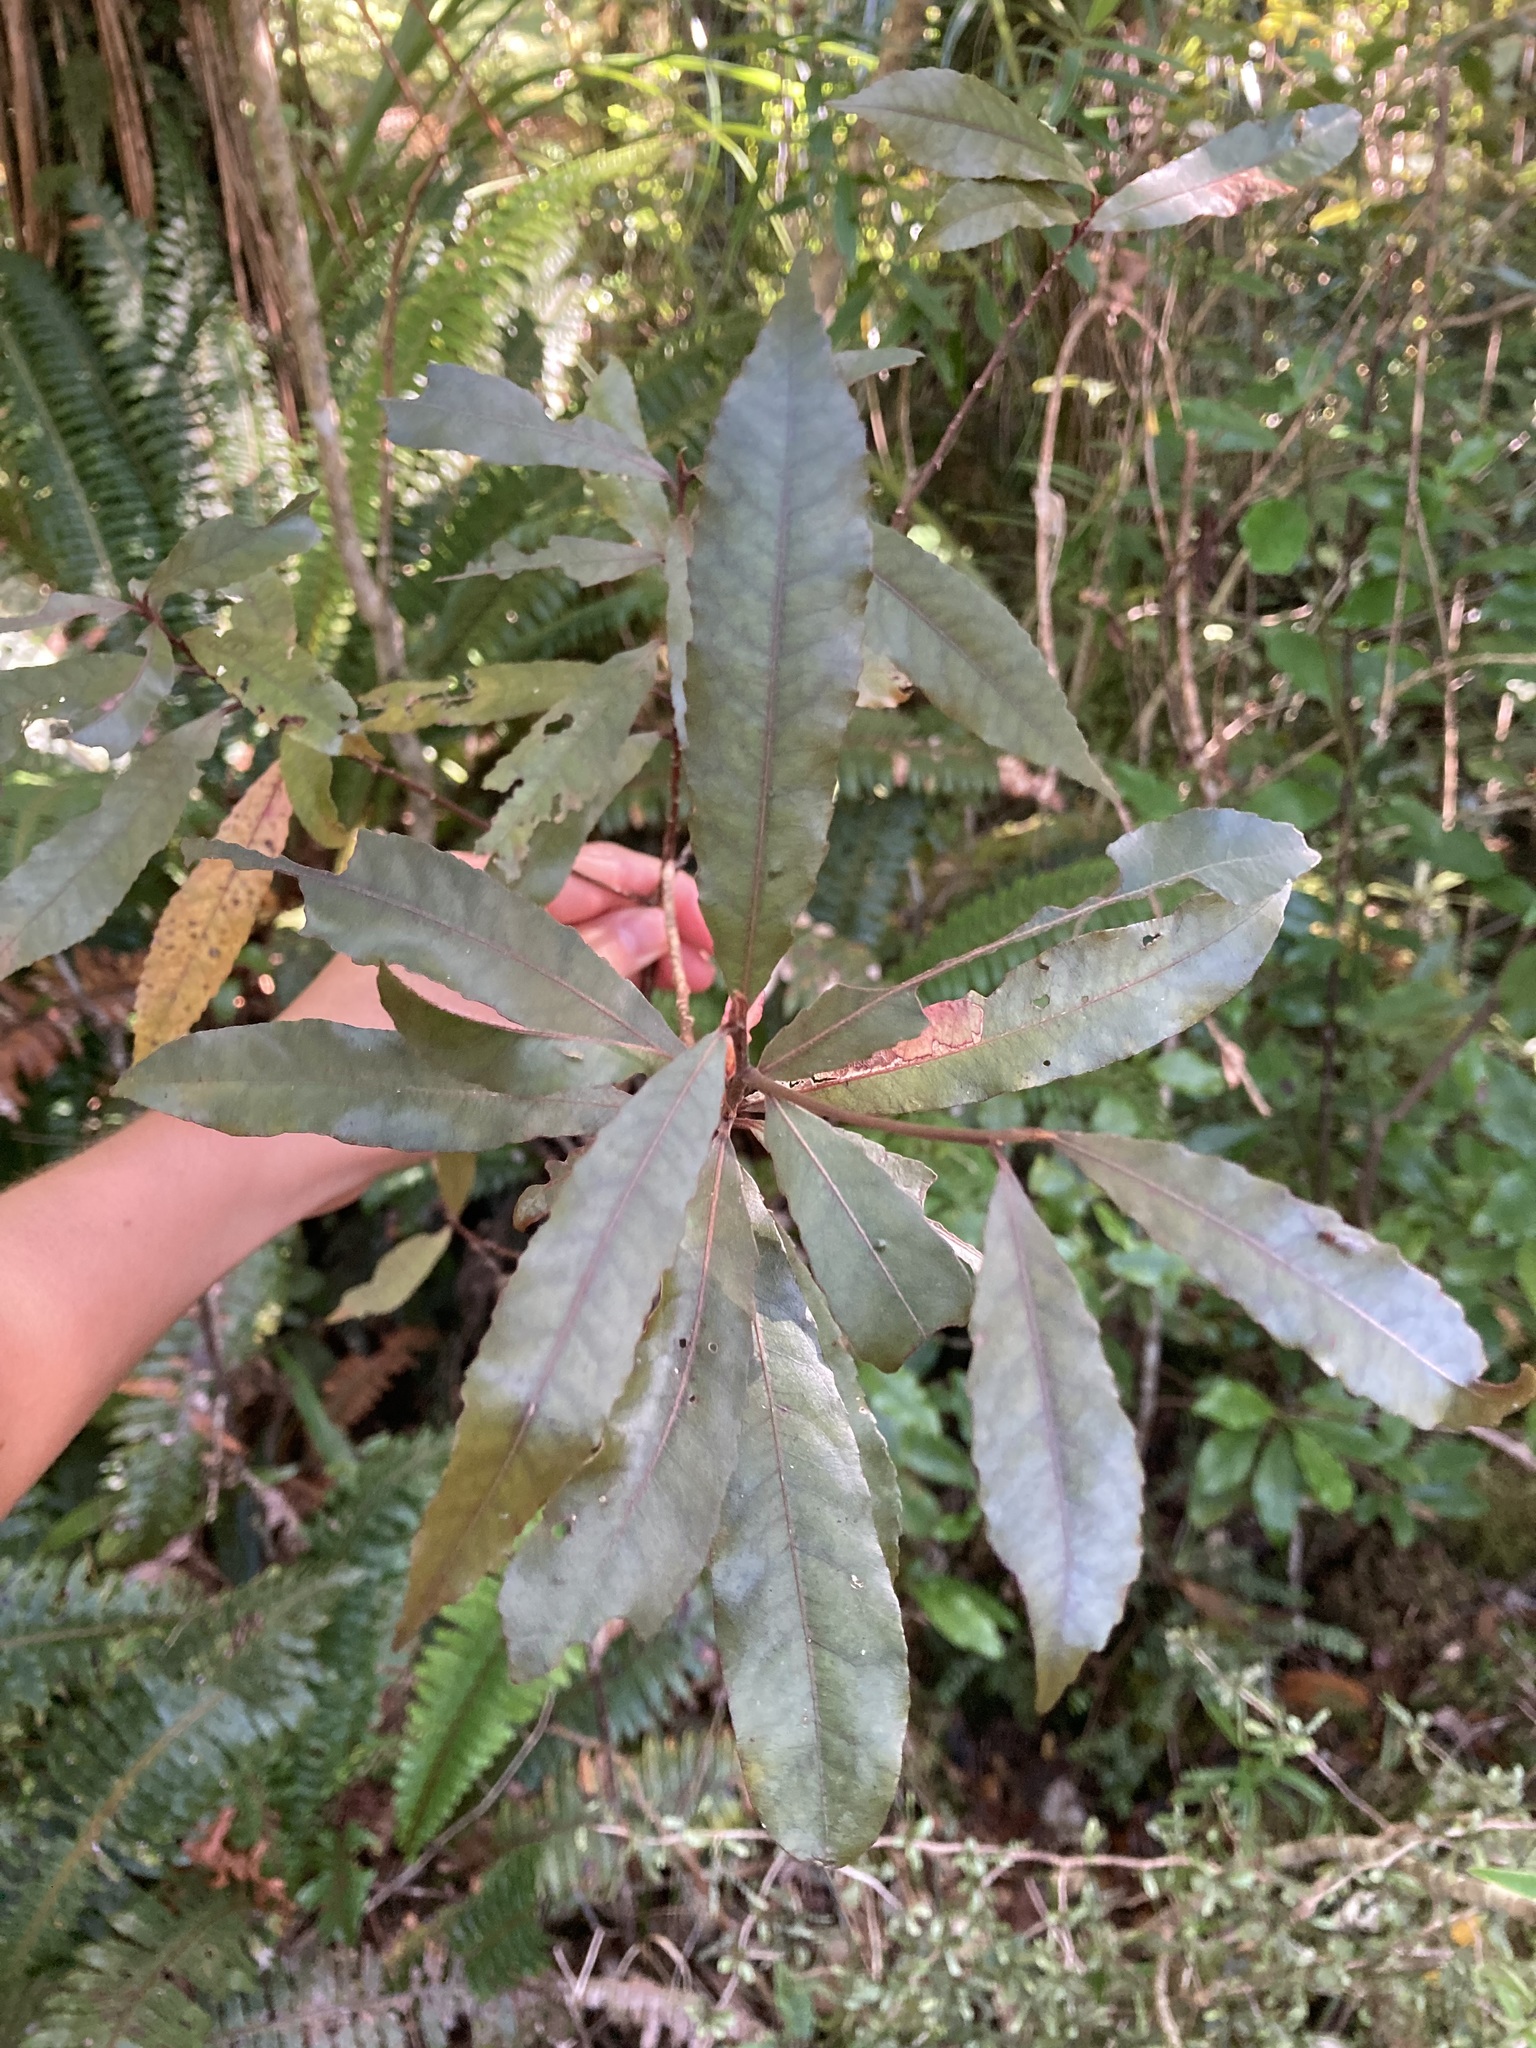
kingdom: Plantae
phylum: Tracheophyta
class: Magnoliopsida
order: Oxalidales
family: Elaeocarpaceae
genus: Elaeocarpus
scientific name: Elaeocarpus dentatus
